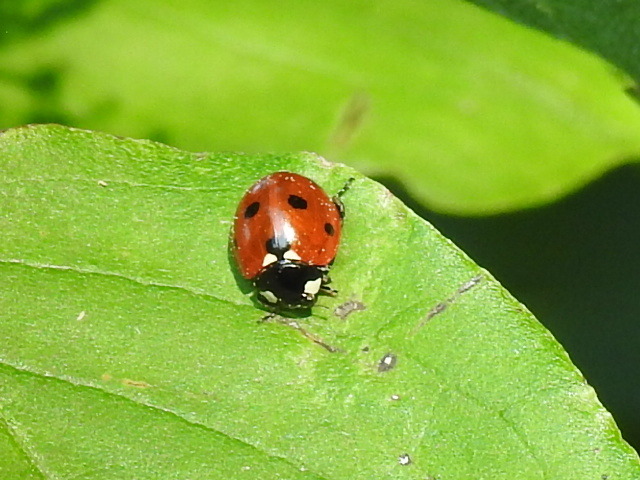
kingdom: Animalia
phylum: Arthropoda
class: Insecta
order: Coleoptera
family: Coccinellidae
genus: Coccinella
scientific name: Coccinella septempunctata
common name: Sevenspotted lady beetle
